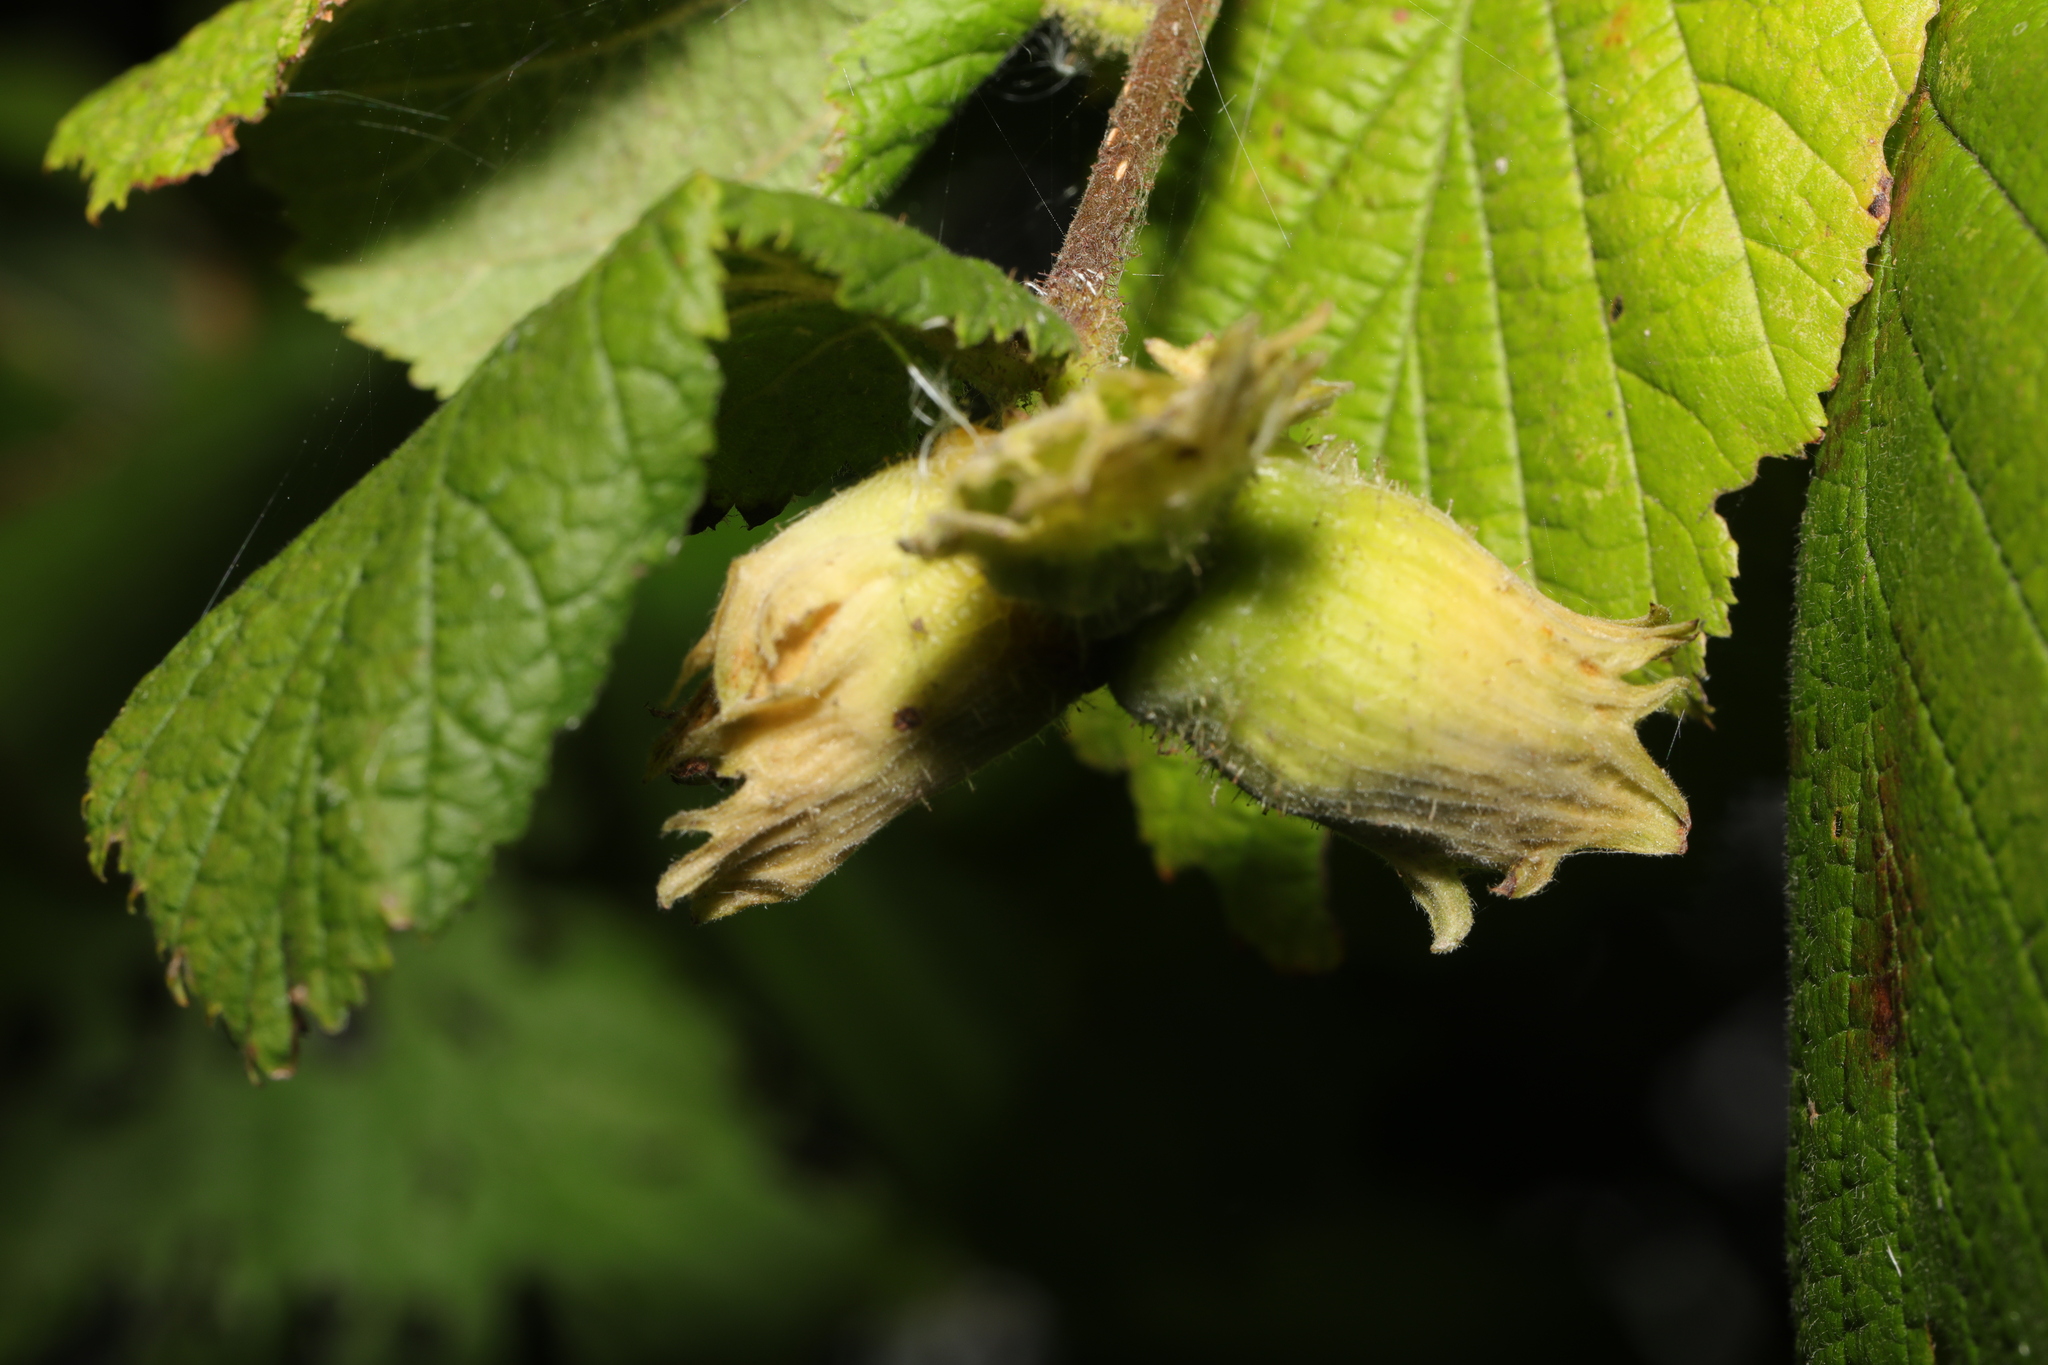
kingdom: Plantae
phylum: Tracheophyta
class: Magnoliopsida
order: Fagales
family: Betulaceae
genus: Corylus
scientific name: Corylus avellana
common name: European hazel
